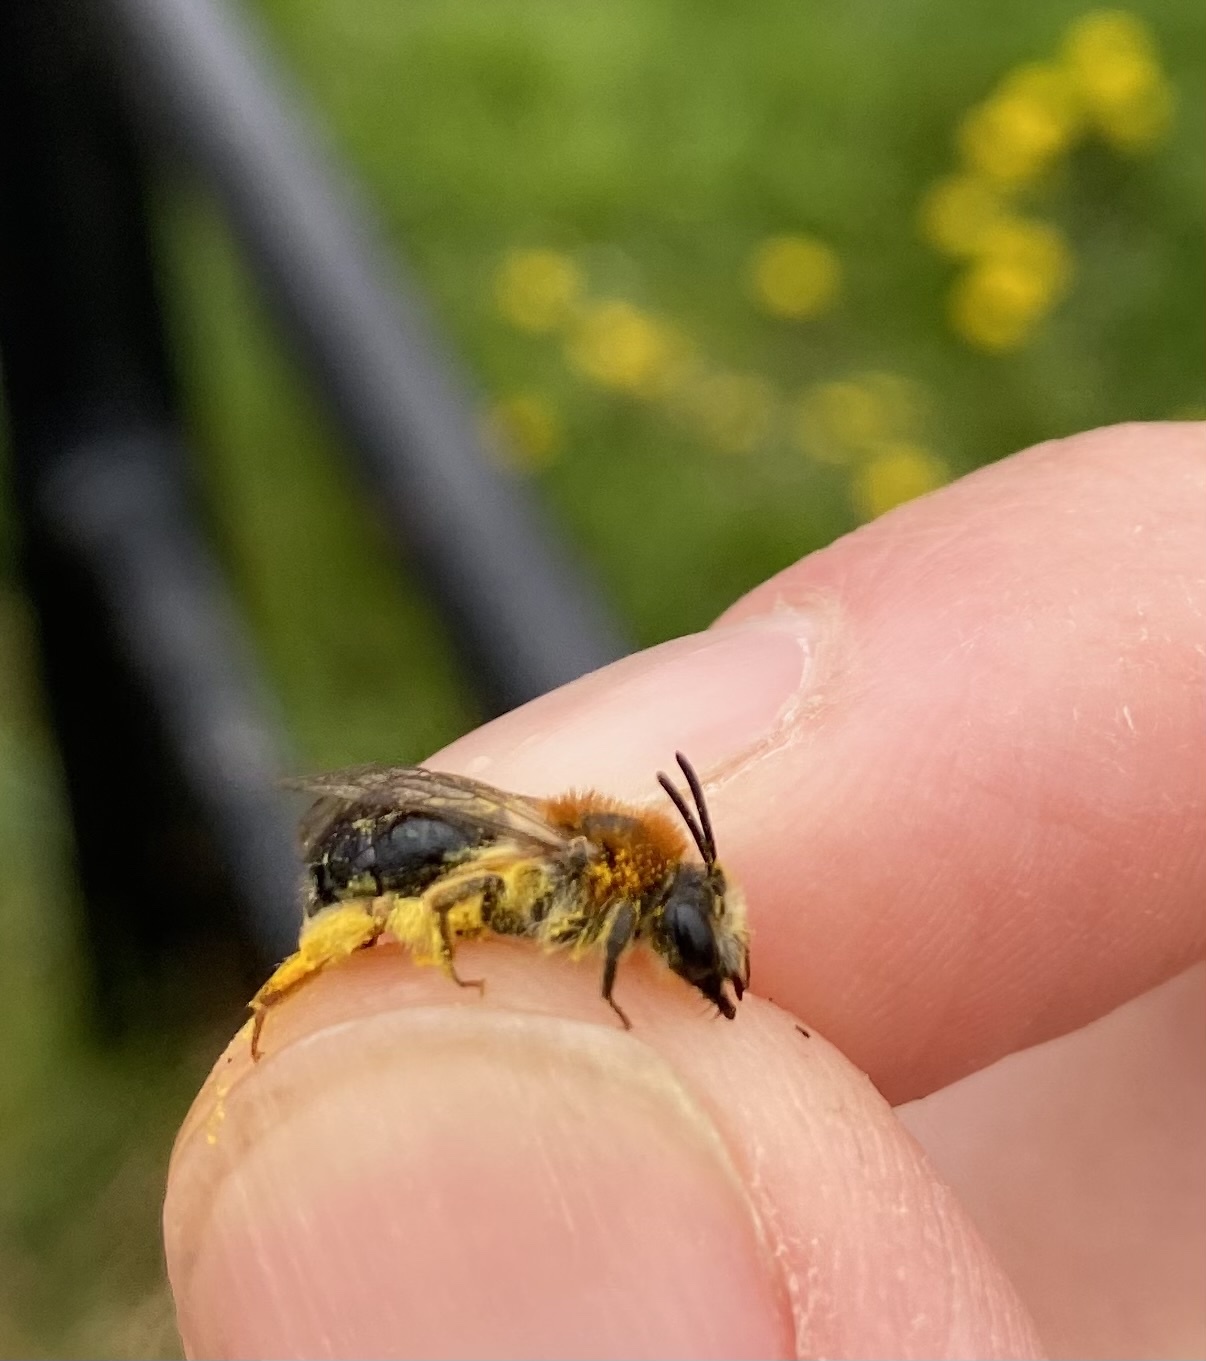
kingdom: Animalia
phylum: Arthropoda
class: Insecta
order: Hymenoptera
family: Andrenidae
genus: Andrena
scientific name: Andrena haemorrhoa
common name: Early mining bee
